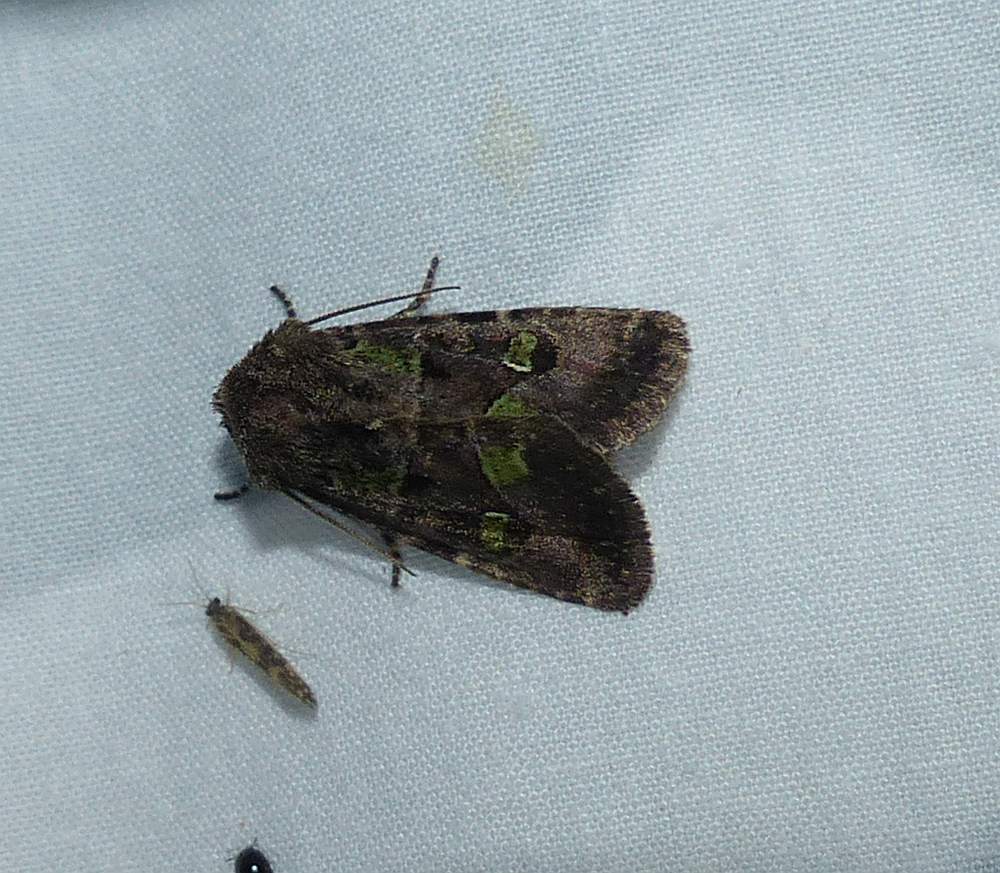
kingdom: Animalia
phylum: Arthropoda
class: Insecta
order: Lepidoptera
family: Noctuidae
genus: Lacinipolia
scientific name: Lacinipolia renigera
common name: Kidney-spotted minor
